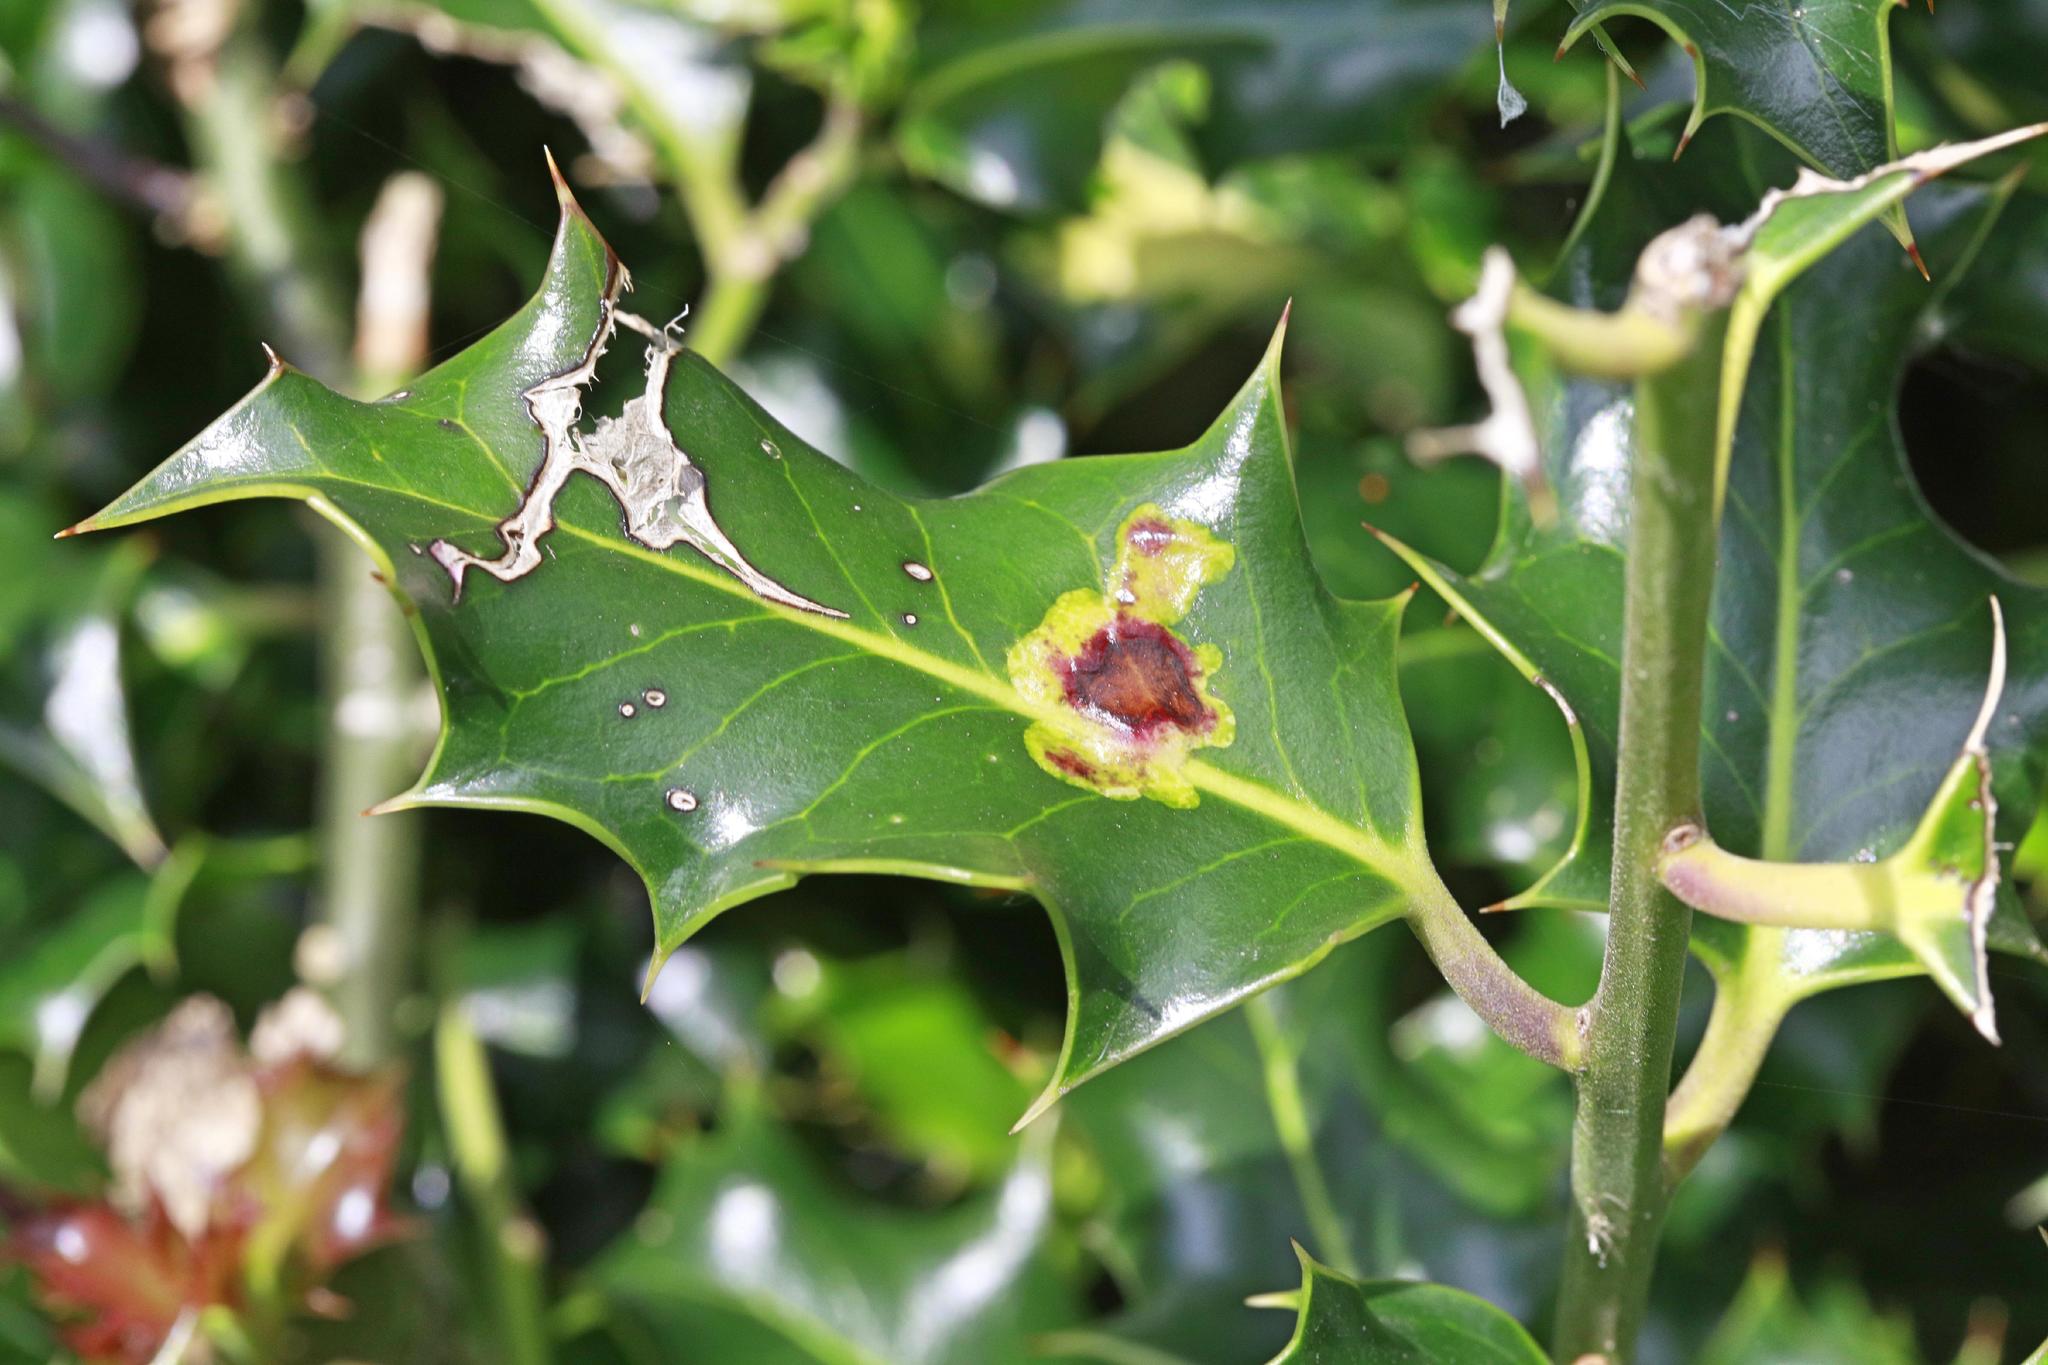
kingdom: Plantae
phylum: Tracheophyta
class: Magnoliopsida
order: Aquifoliales
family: Aquifoliaceae
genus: Ilex
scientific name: Ilex aquifolium
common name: English holly
